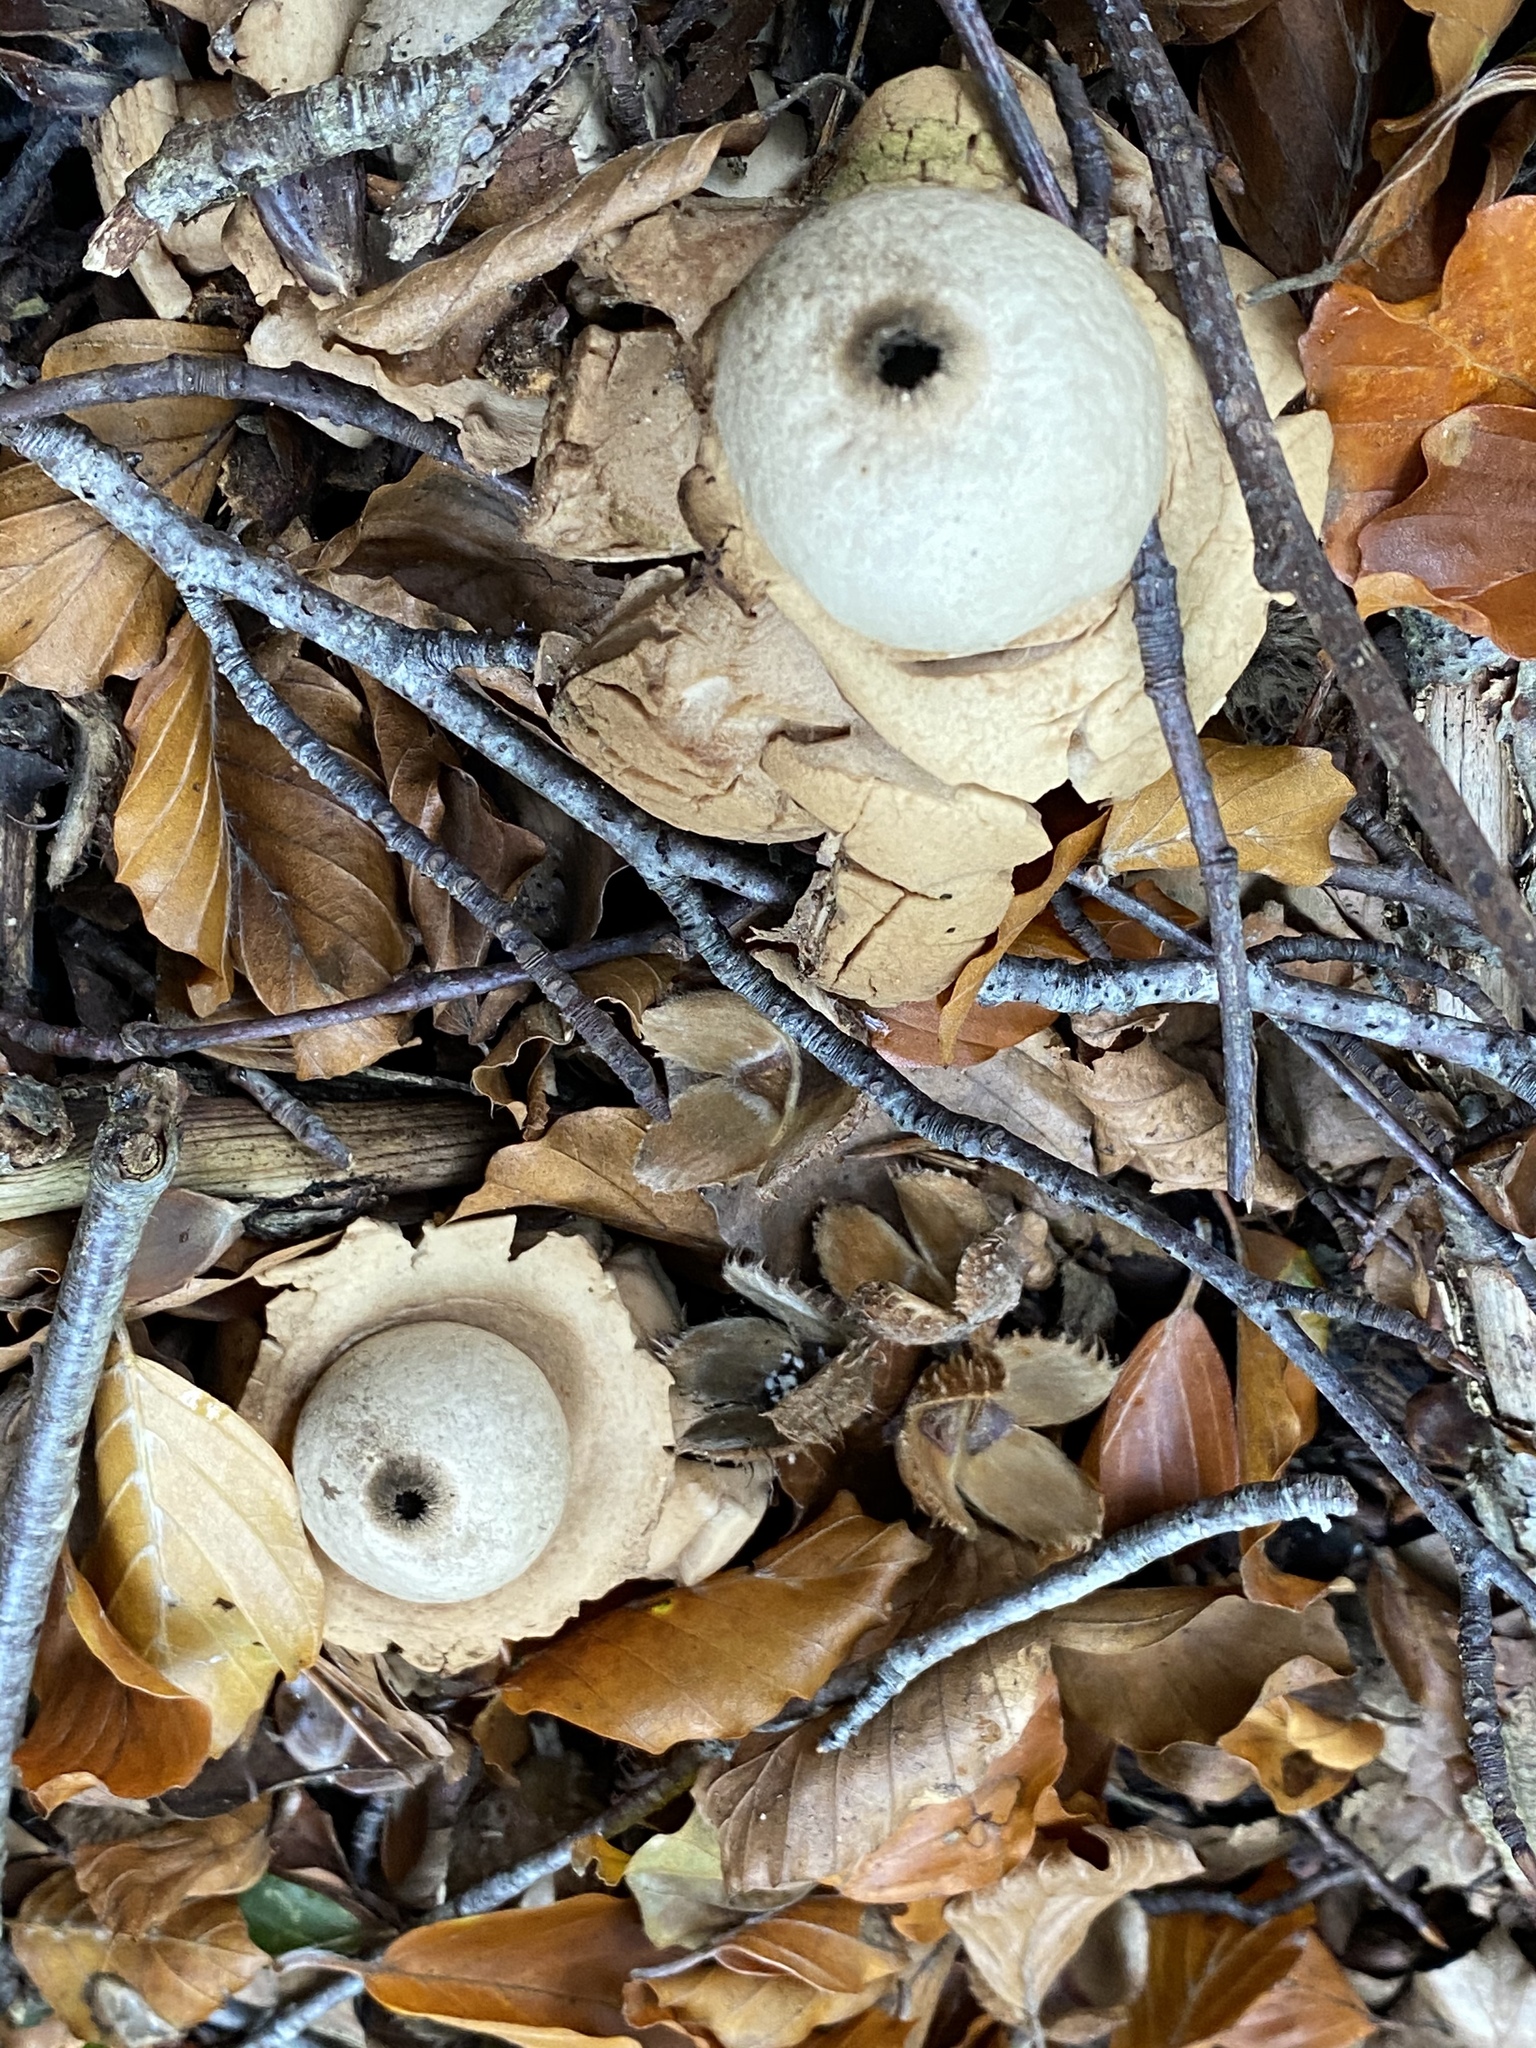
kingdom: Fungi
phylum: Basidiomycota
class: Agaricomycetes
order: Geastrales
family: Geastraceae
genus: Geastrum
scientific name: Geastrum triplex
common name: Collared earthstar
